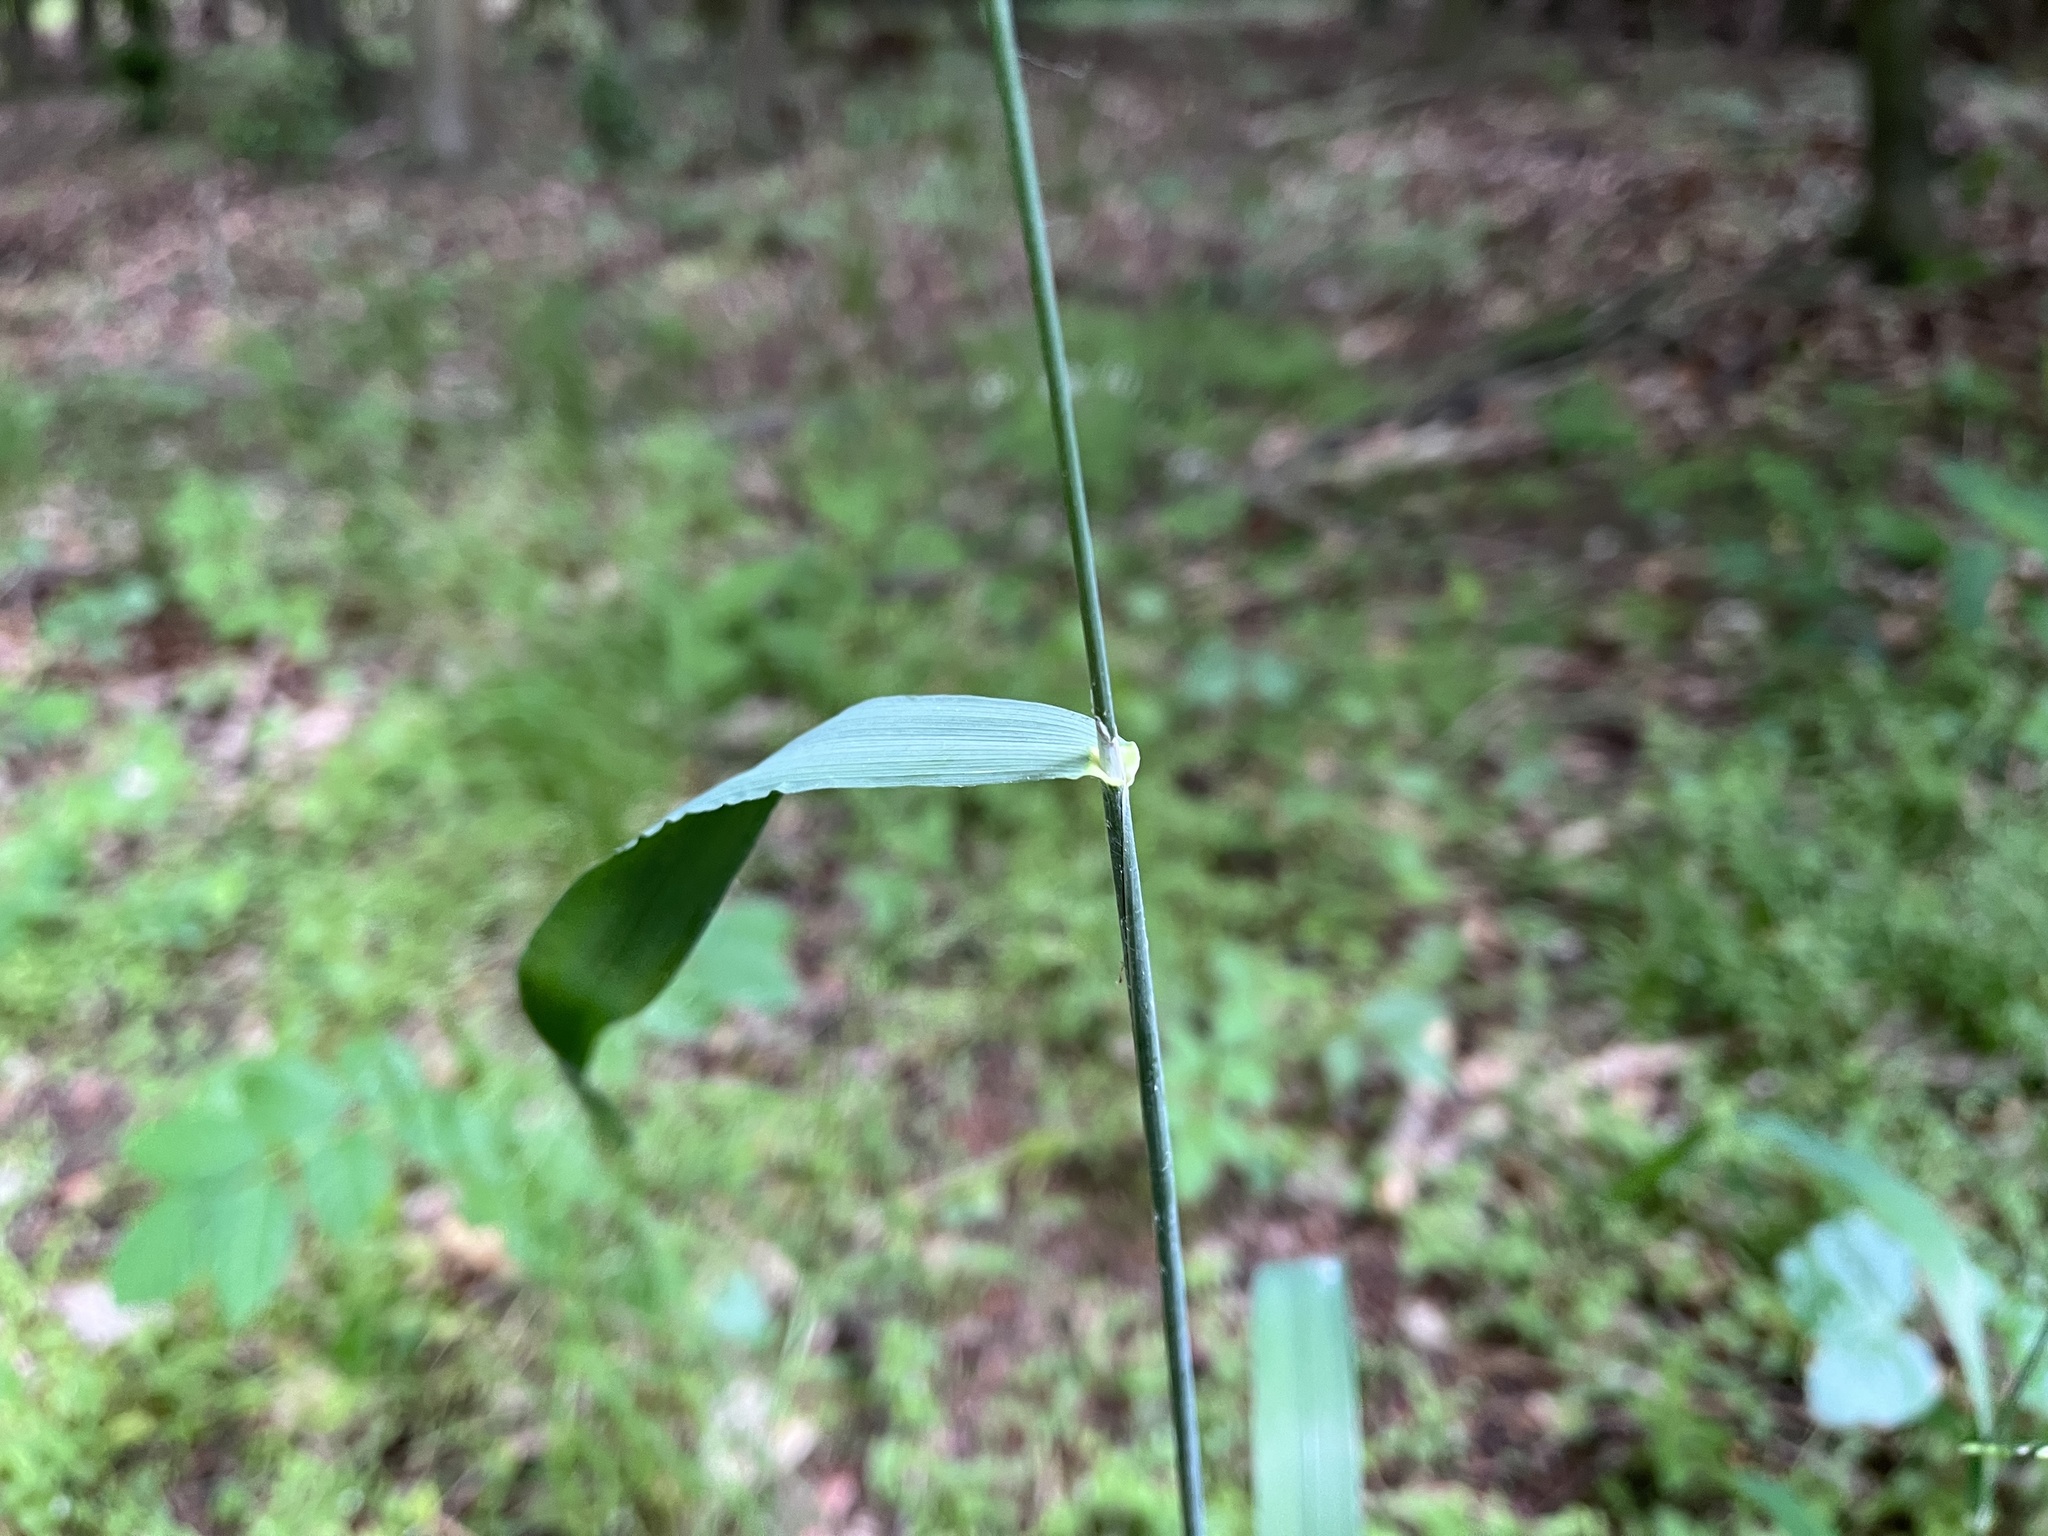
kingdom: Plantae
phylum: Tracheophyta
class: Liliopsida
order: Poales
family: Poaceae
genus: Milium
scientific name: Milium effusum
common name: Wood millet
